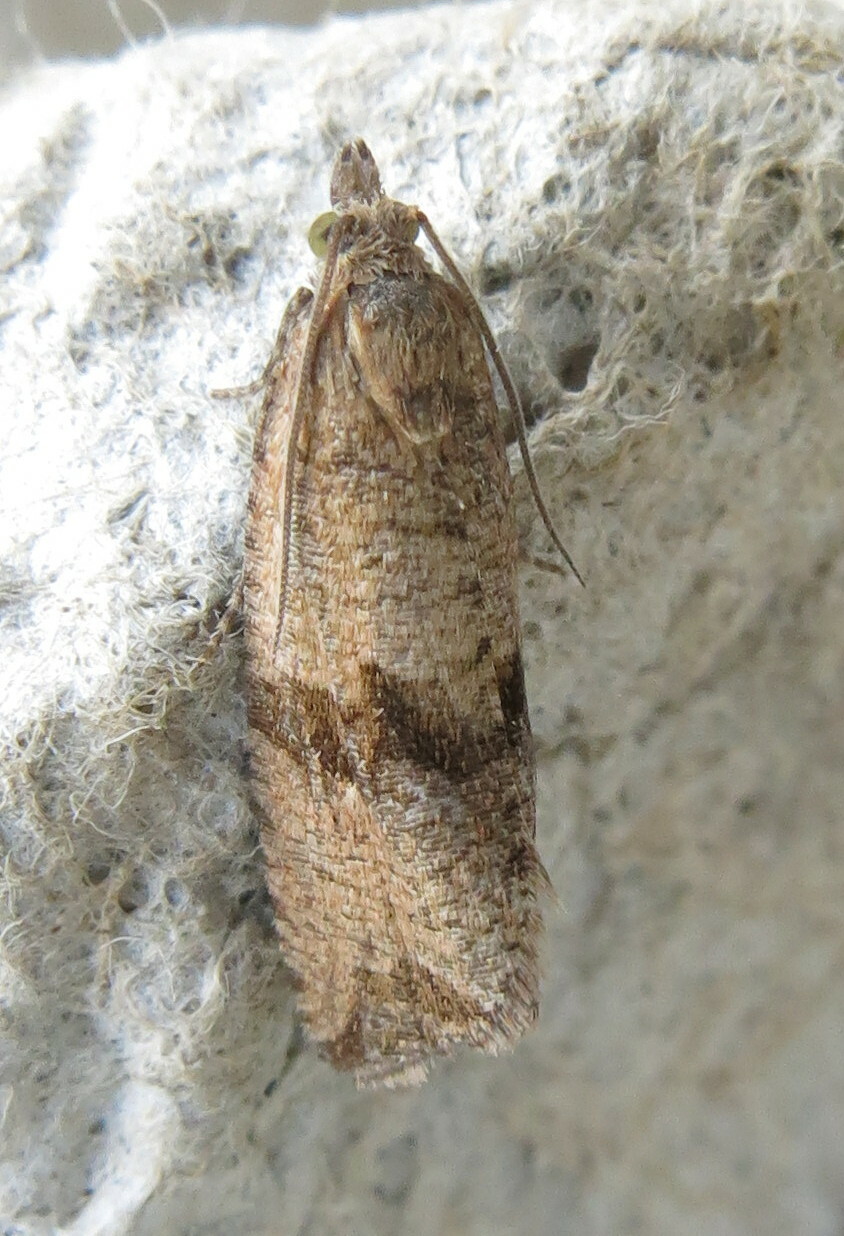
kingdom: Animalia
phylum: Arthropoda
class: Insecta
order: Lepidoptera
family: Tortricidae
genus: Celypha
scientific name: Celypha striana
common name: Barred marble
